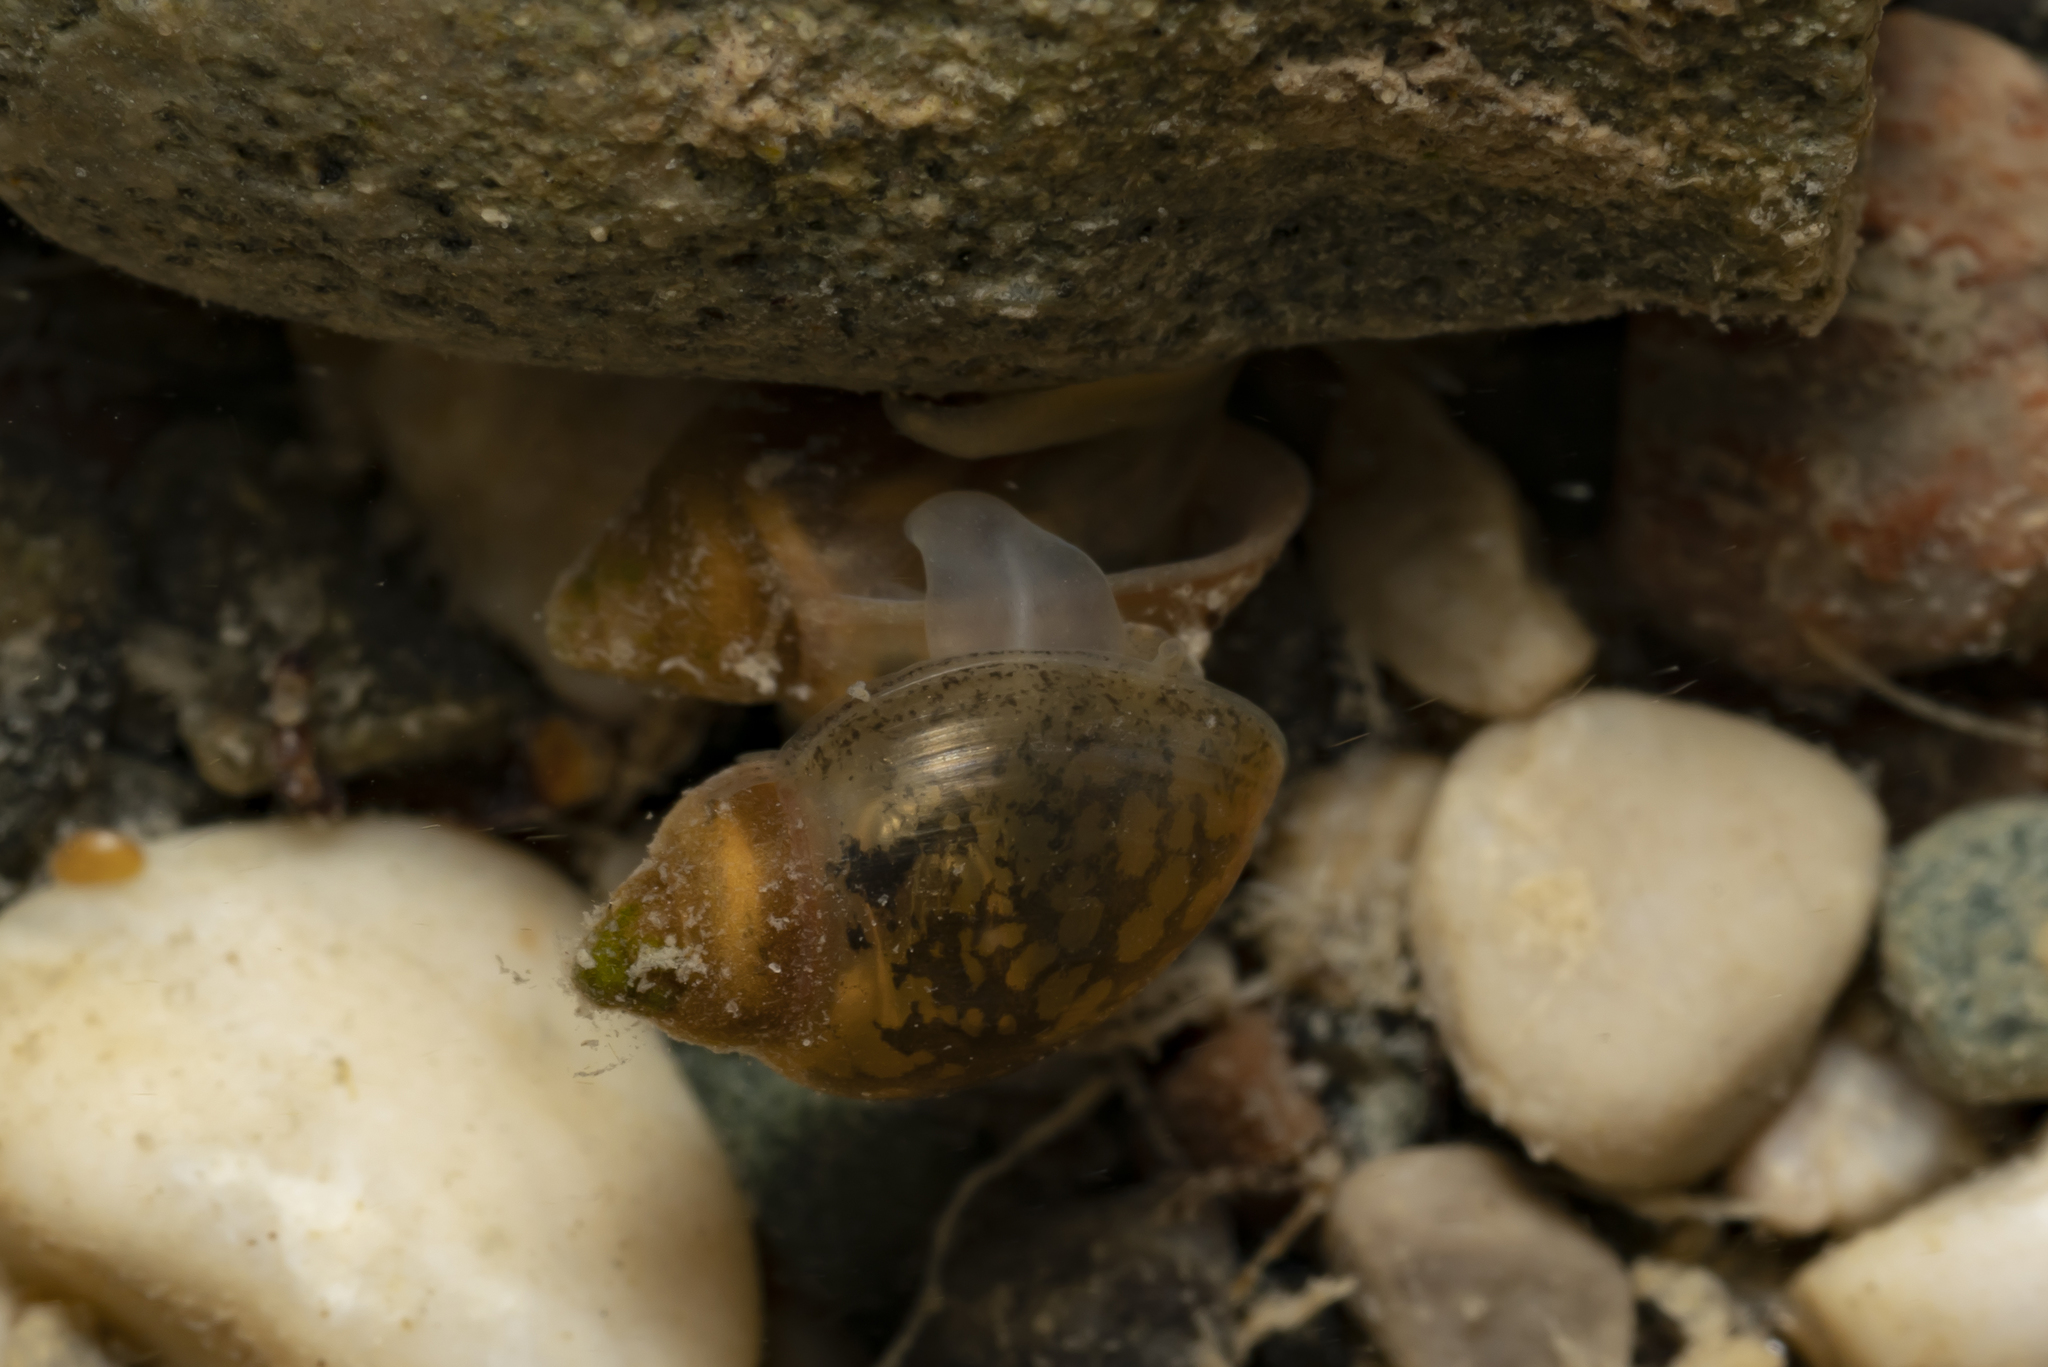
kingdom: Animalia
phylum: Mollusca
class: Gastropoda
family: Physidae
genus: Physella
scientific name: Physella acuta
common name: European physa
